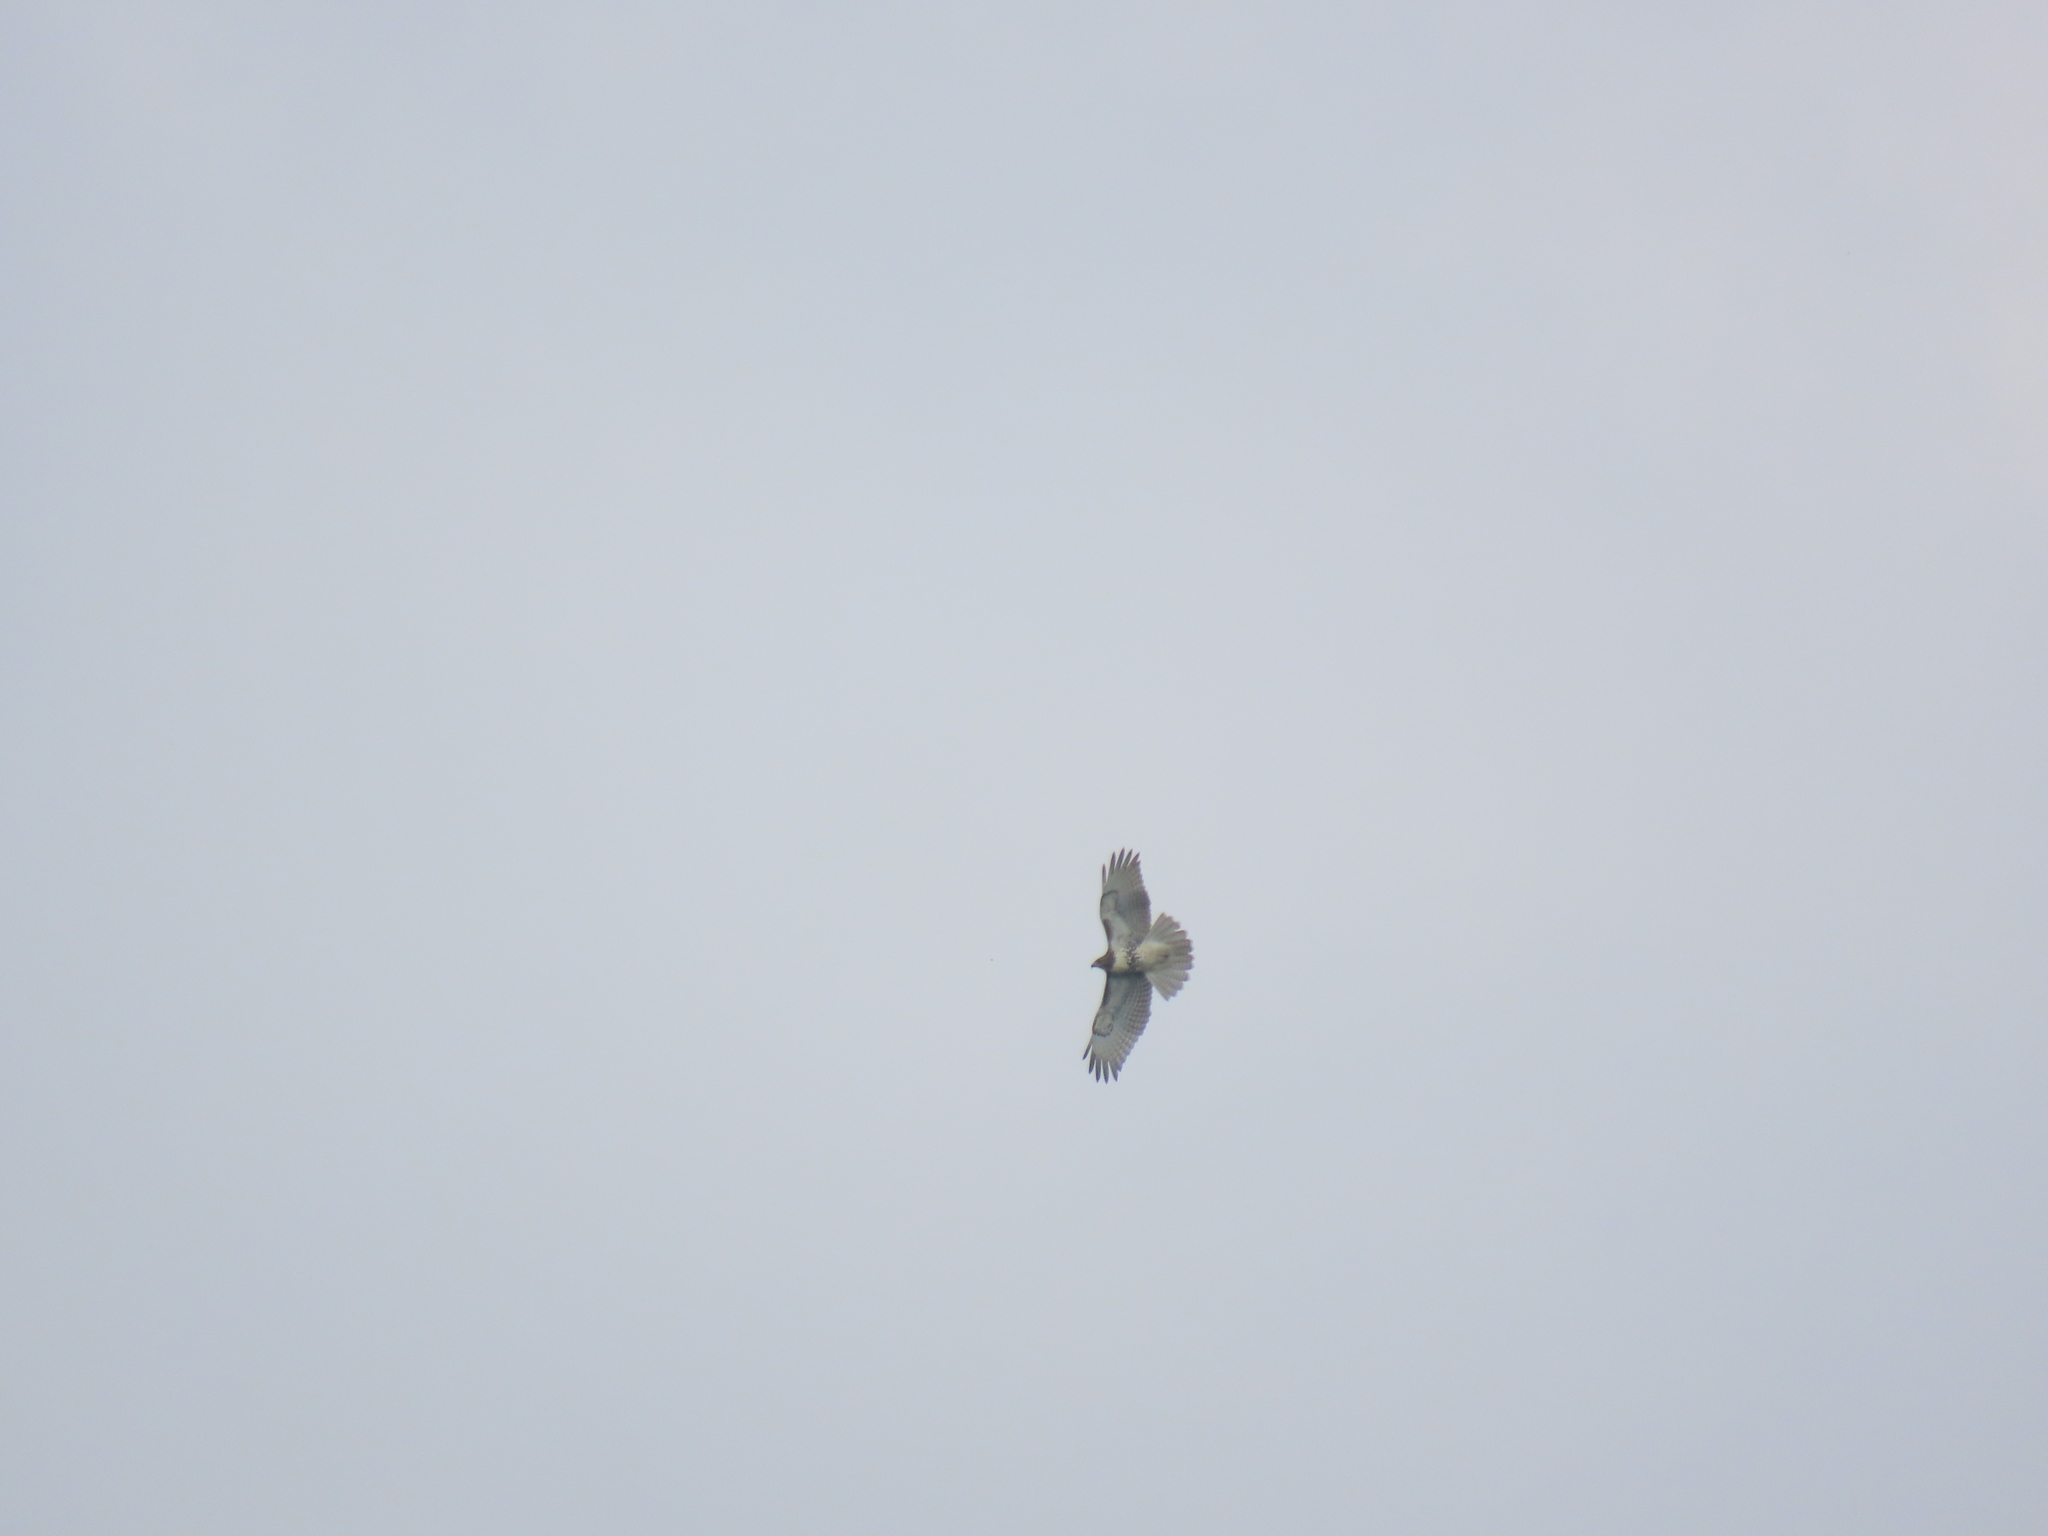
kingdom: Animalia
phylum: Chordata
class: Aves
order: Accipitriformes
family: Accipitridae
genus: Buteo
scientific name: Buteo jamaicensis
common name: Red-tailed hawk
